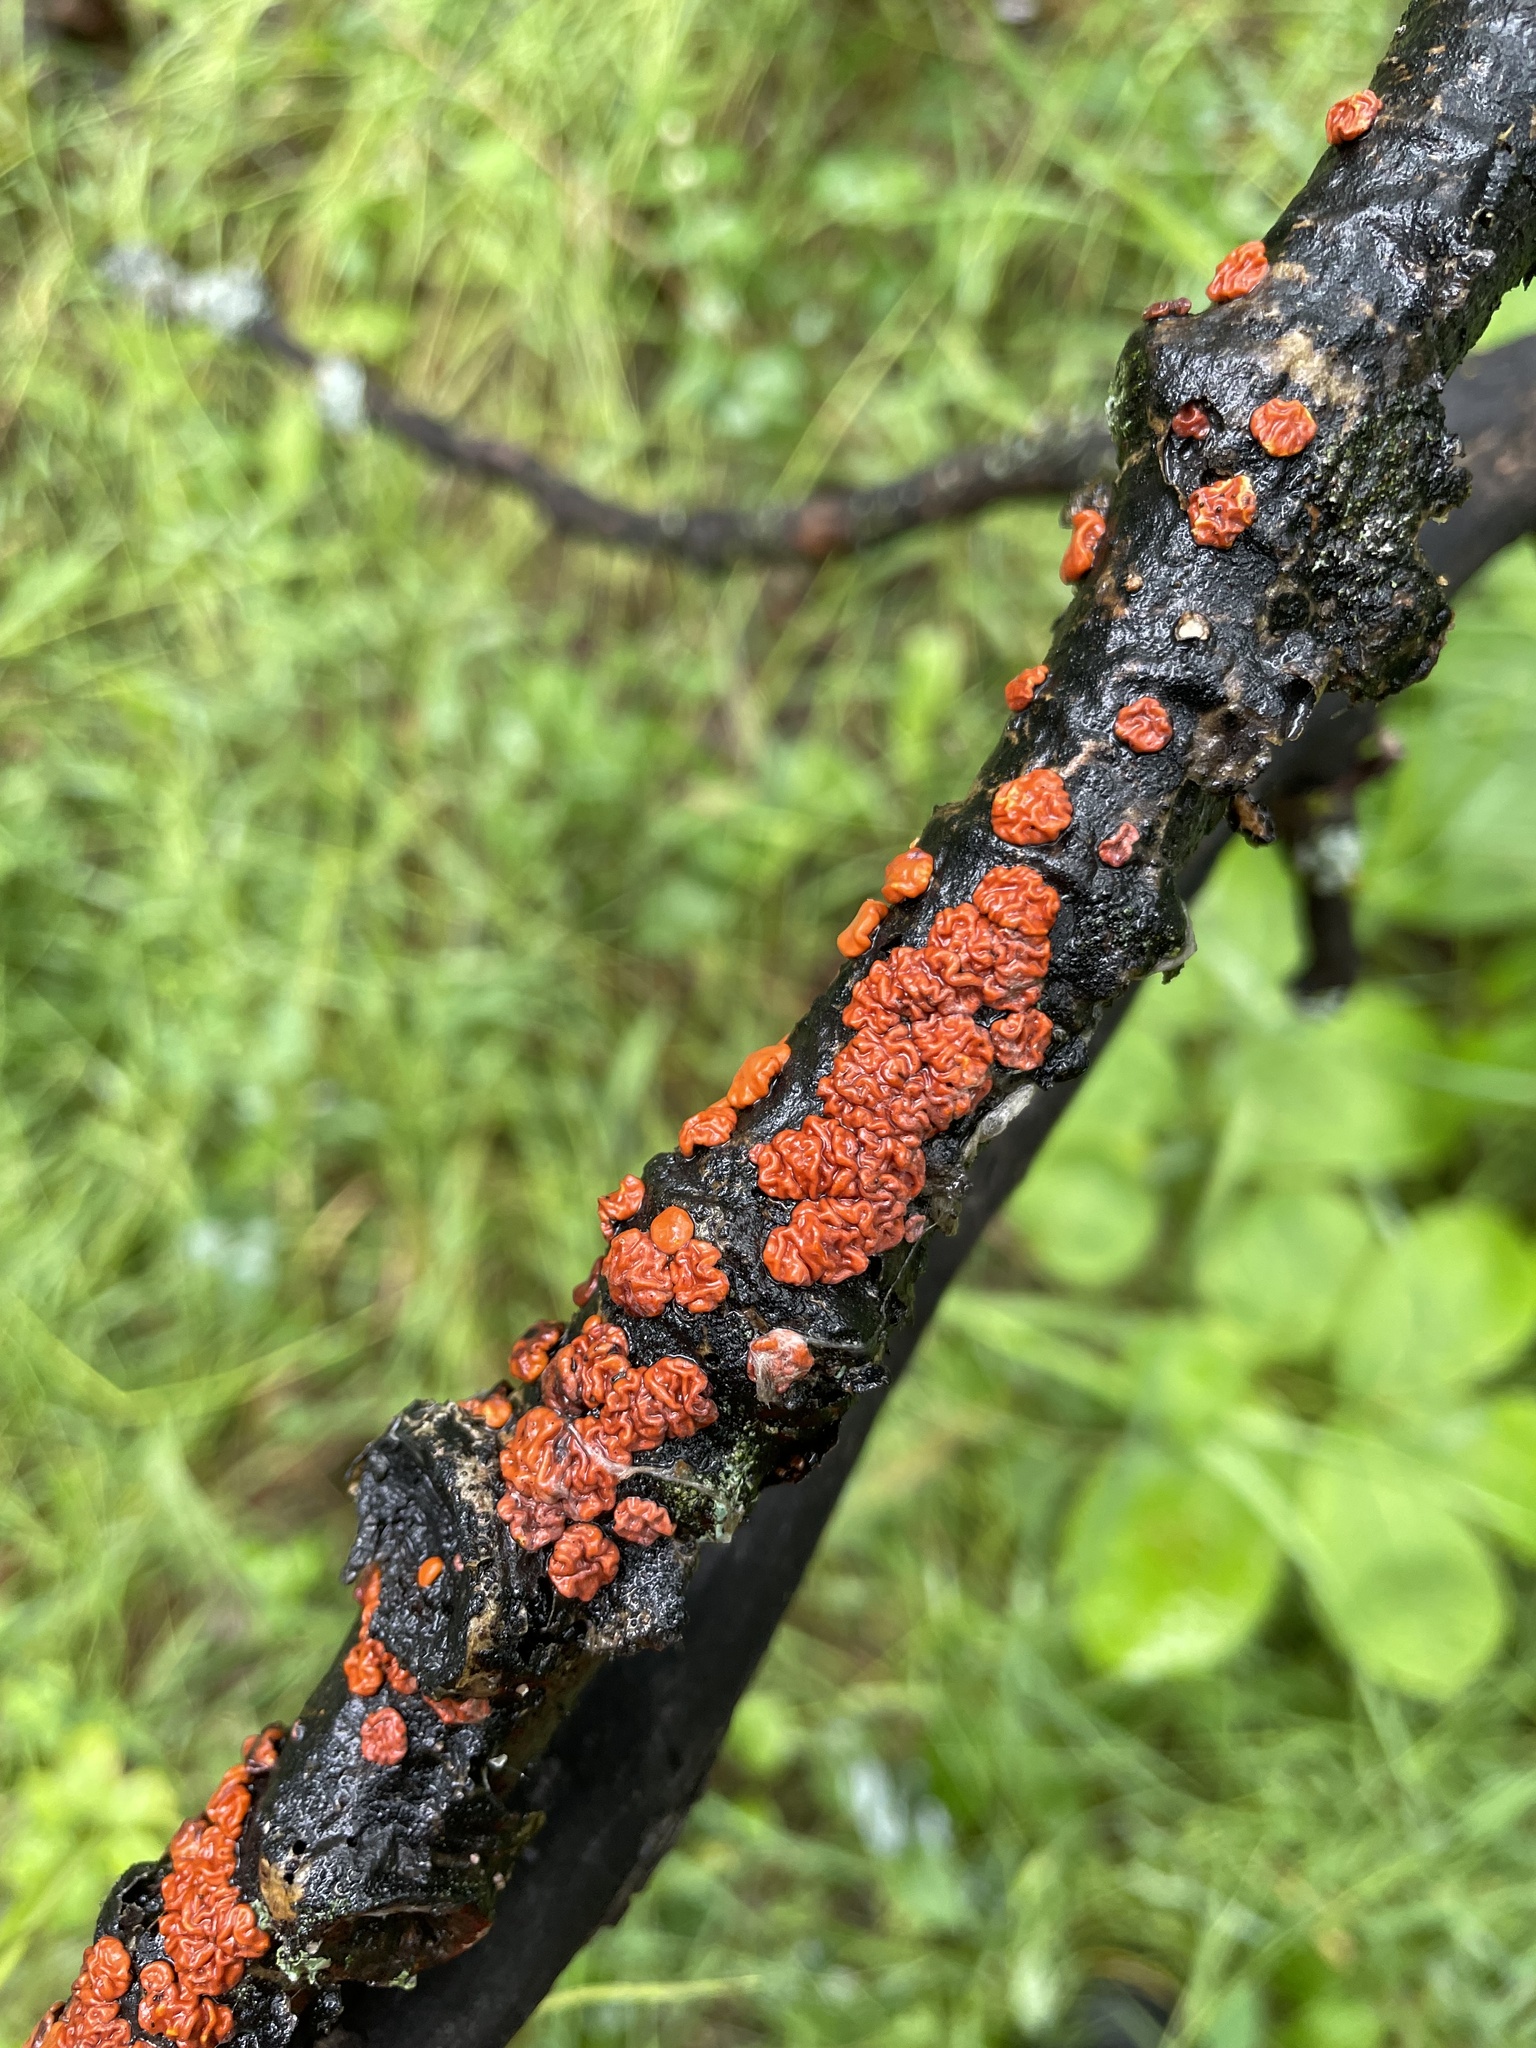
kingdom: Fungi
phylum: Basidiomycota
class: Agaricomycetes
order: Russulales
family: Peniophoraceae
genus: Peniophora
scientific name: Peniophora rufa
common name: Red tree brain fungus
